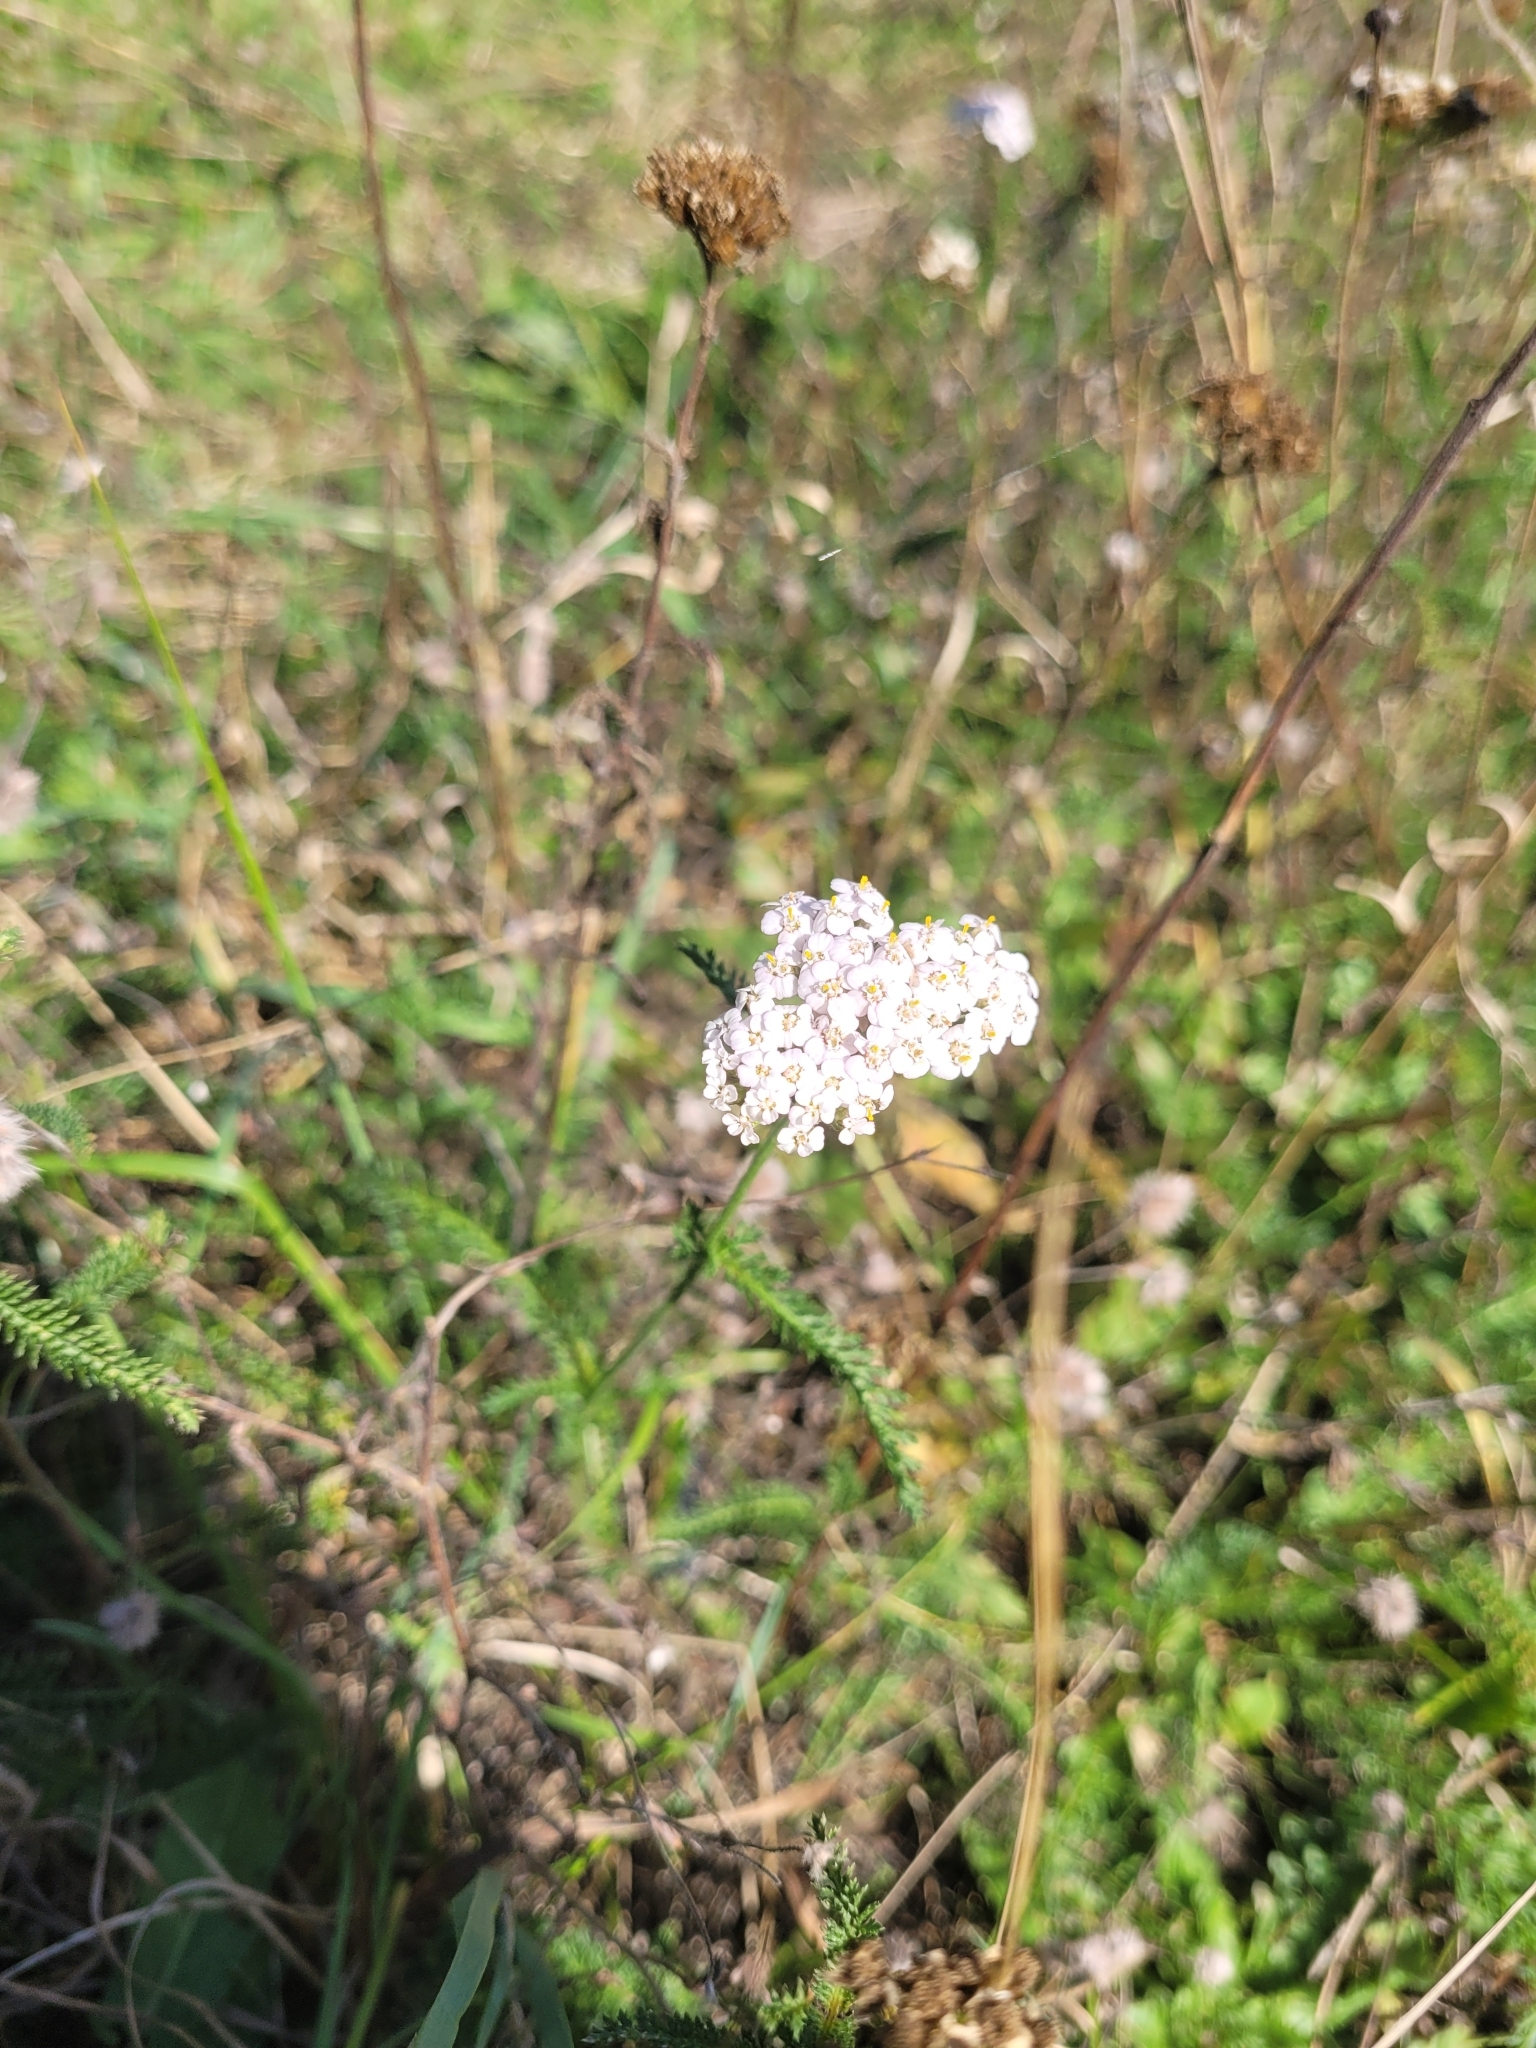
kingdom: Plantae
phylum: Tracheophyta
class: Magnoliopsida
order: Asterales
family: Asteraceae
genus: Achillea
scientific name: Achillea millefolium
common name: Yarrow
